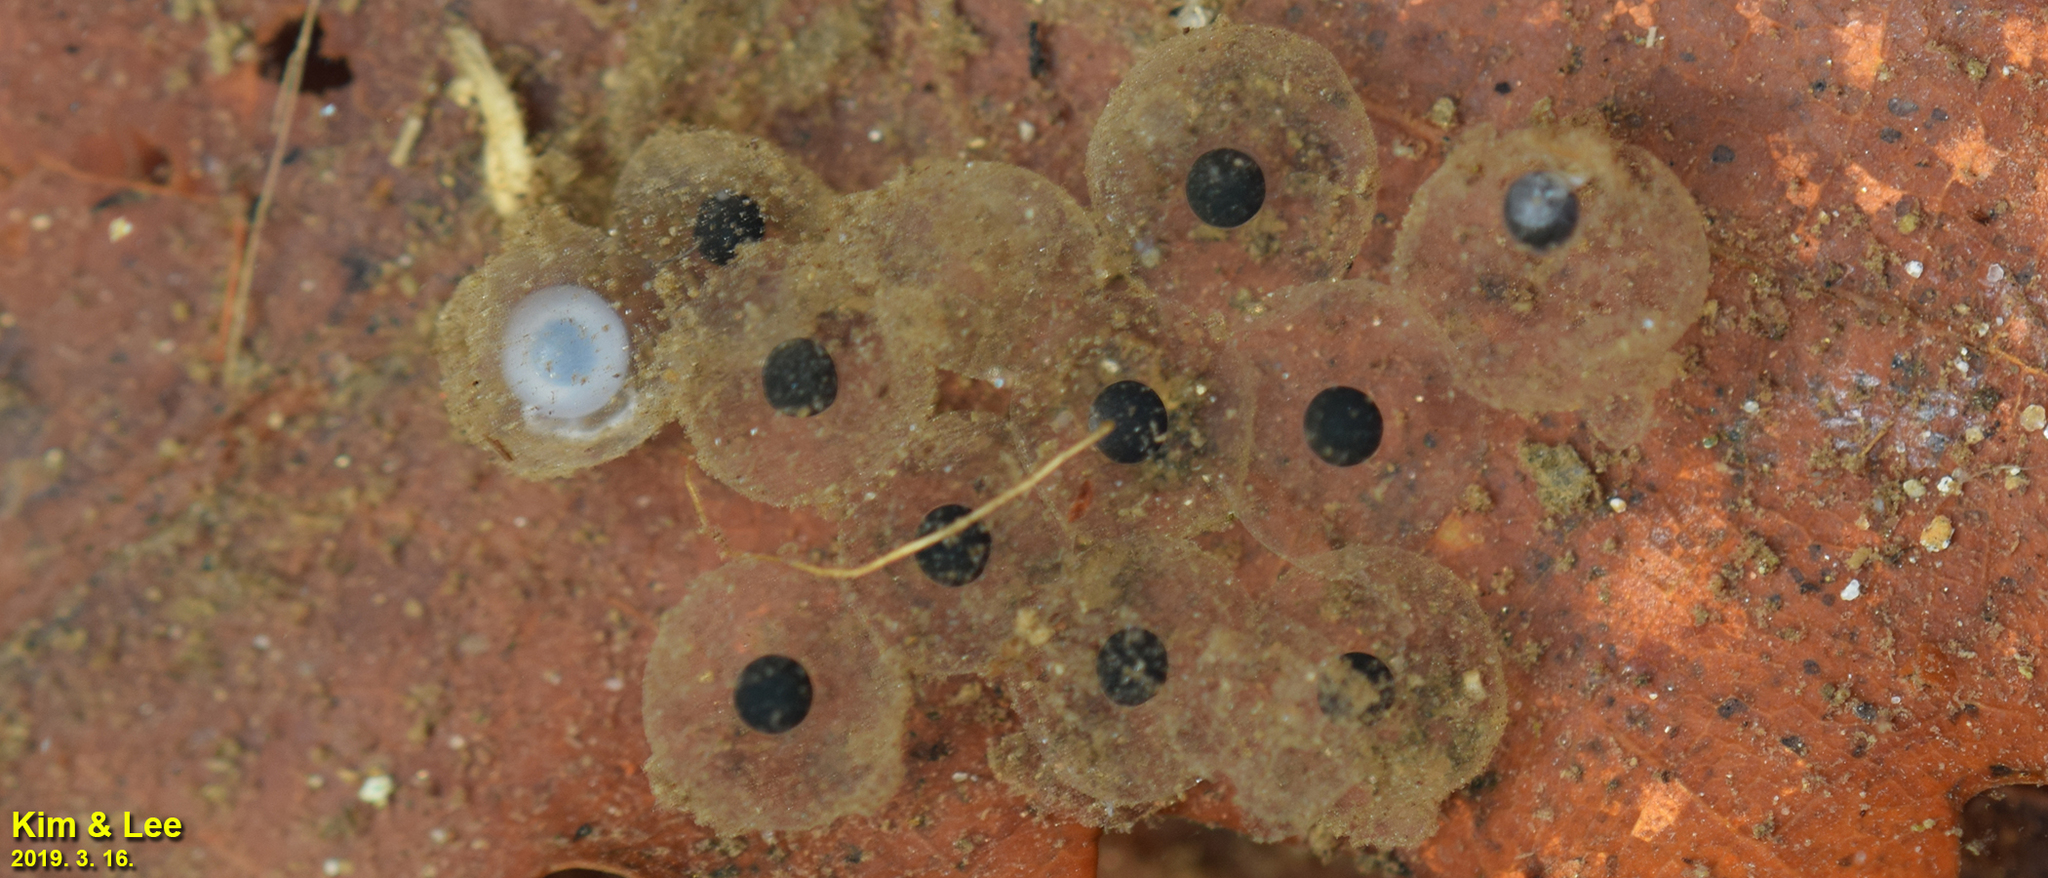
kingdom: Animalia
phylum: Chordata
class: Amphibia
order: Anura
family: Ranidae
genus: Rana
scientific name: Rana huanrenensis
